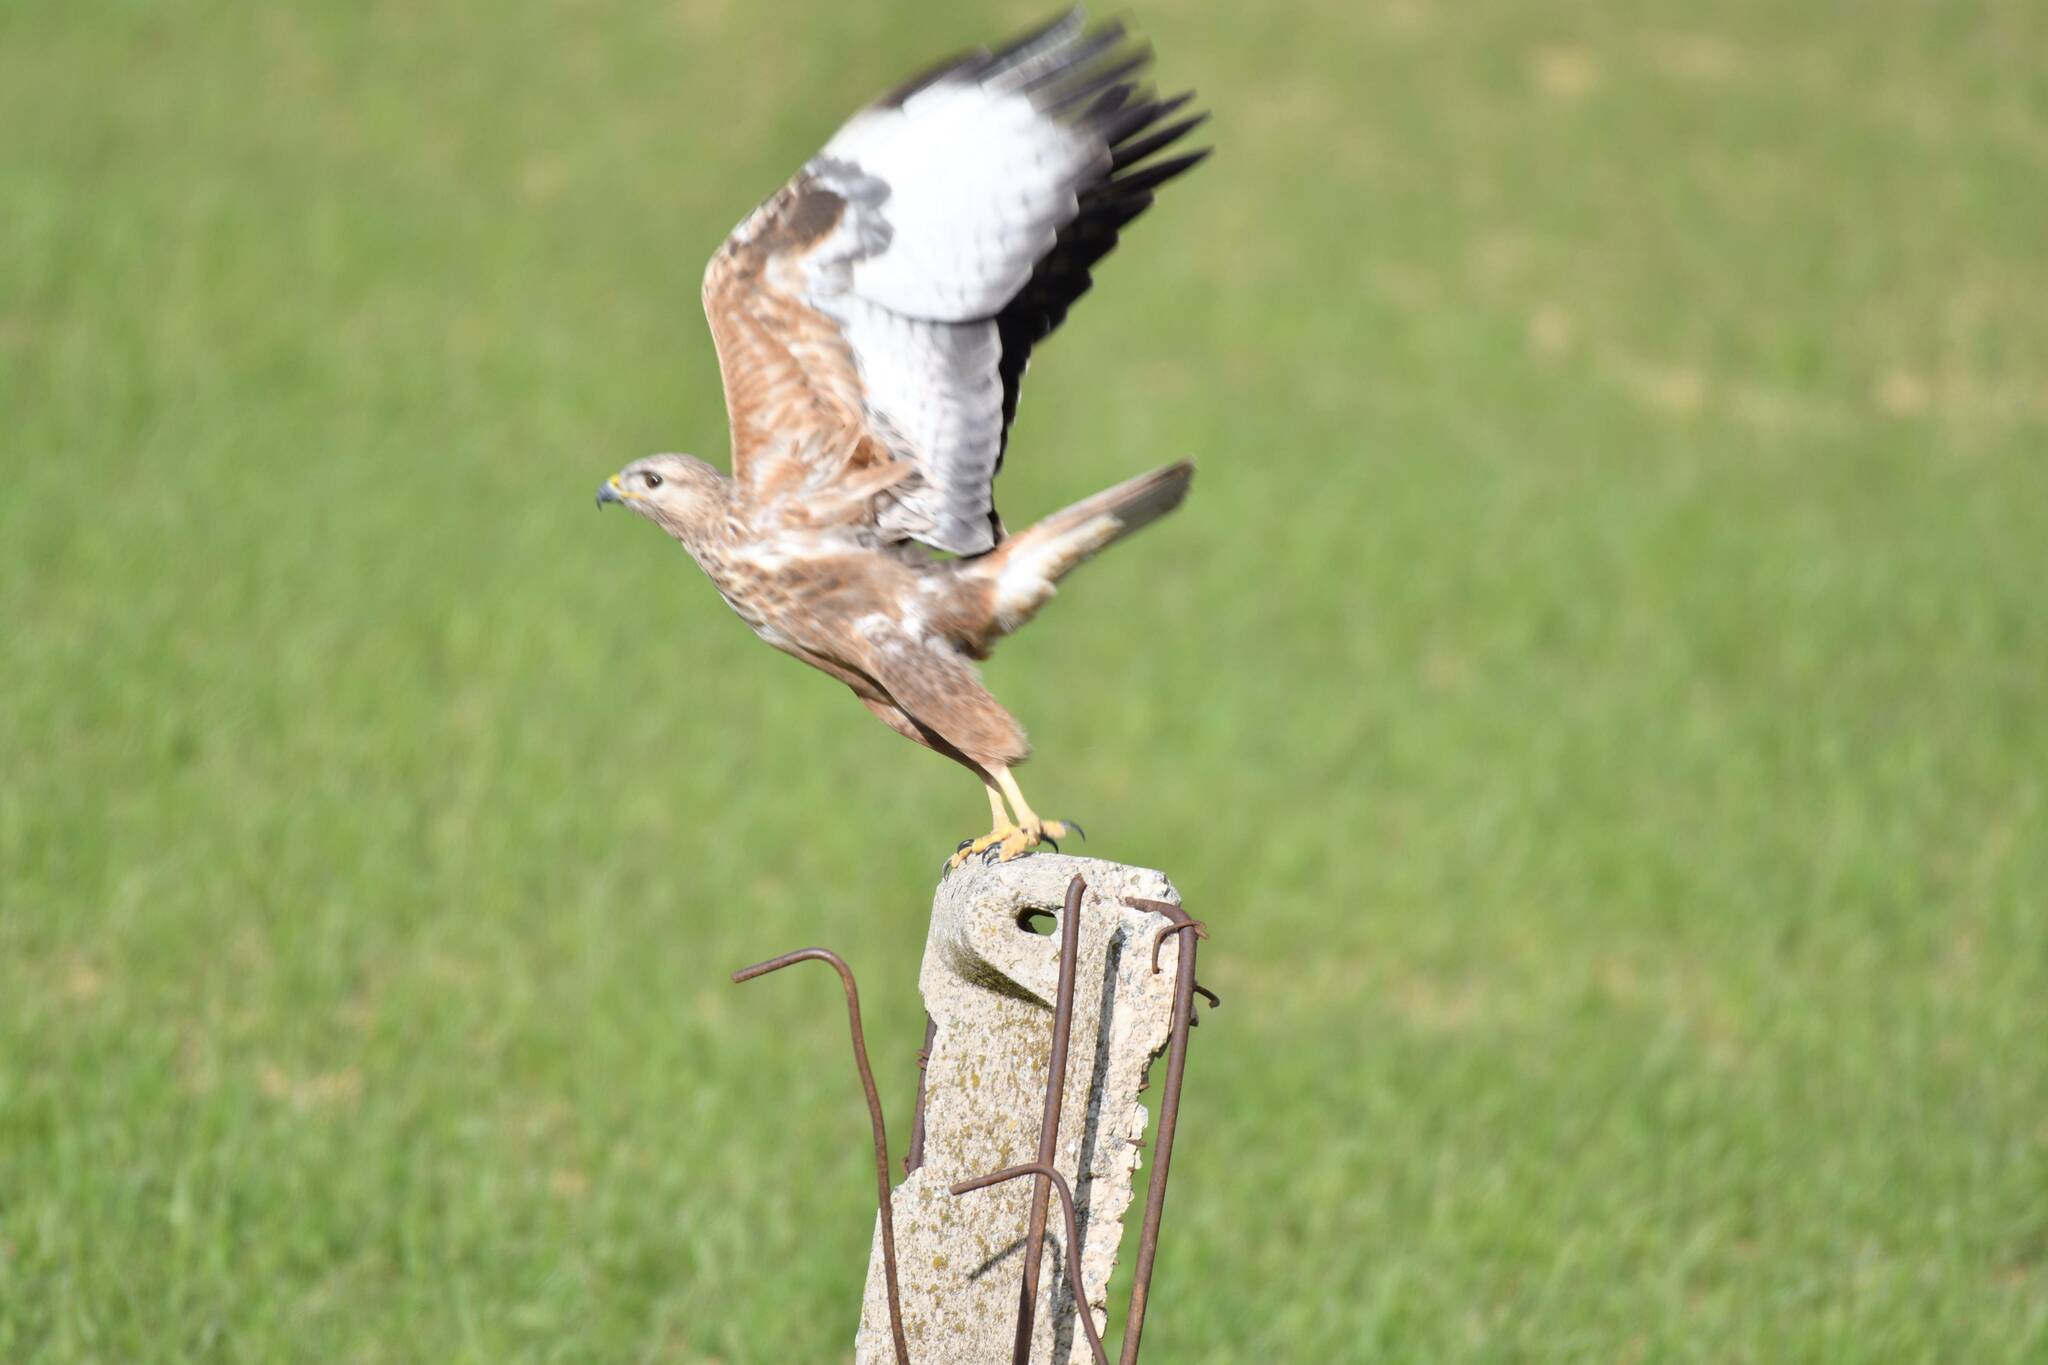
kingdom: Animalia
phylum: Chordata
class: Aves
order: Accipitriformes
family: Accipitridae
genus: Buteo
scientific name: Buteo rufinus
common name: Long-legged buzzard
